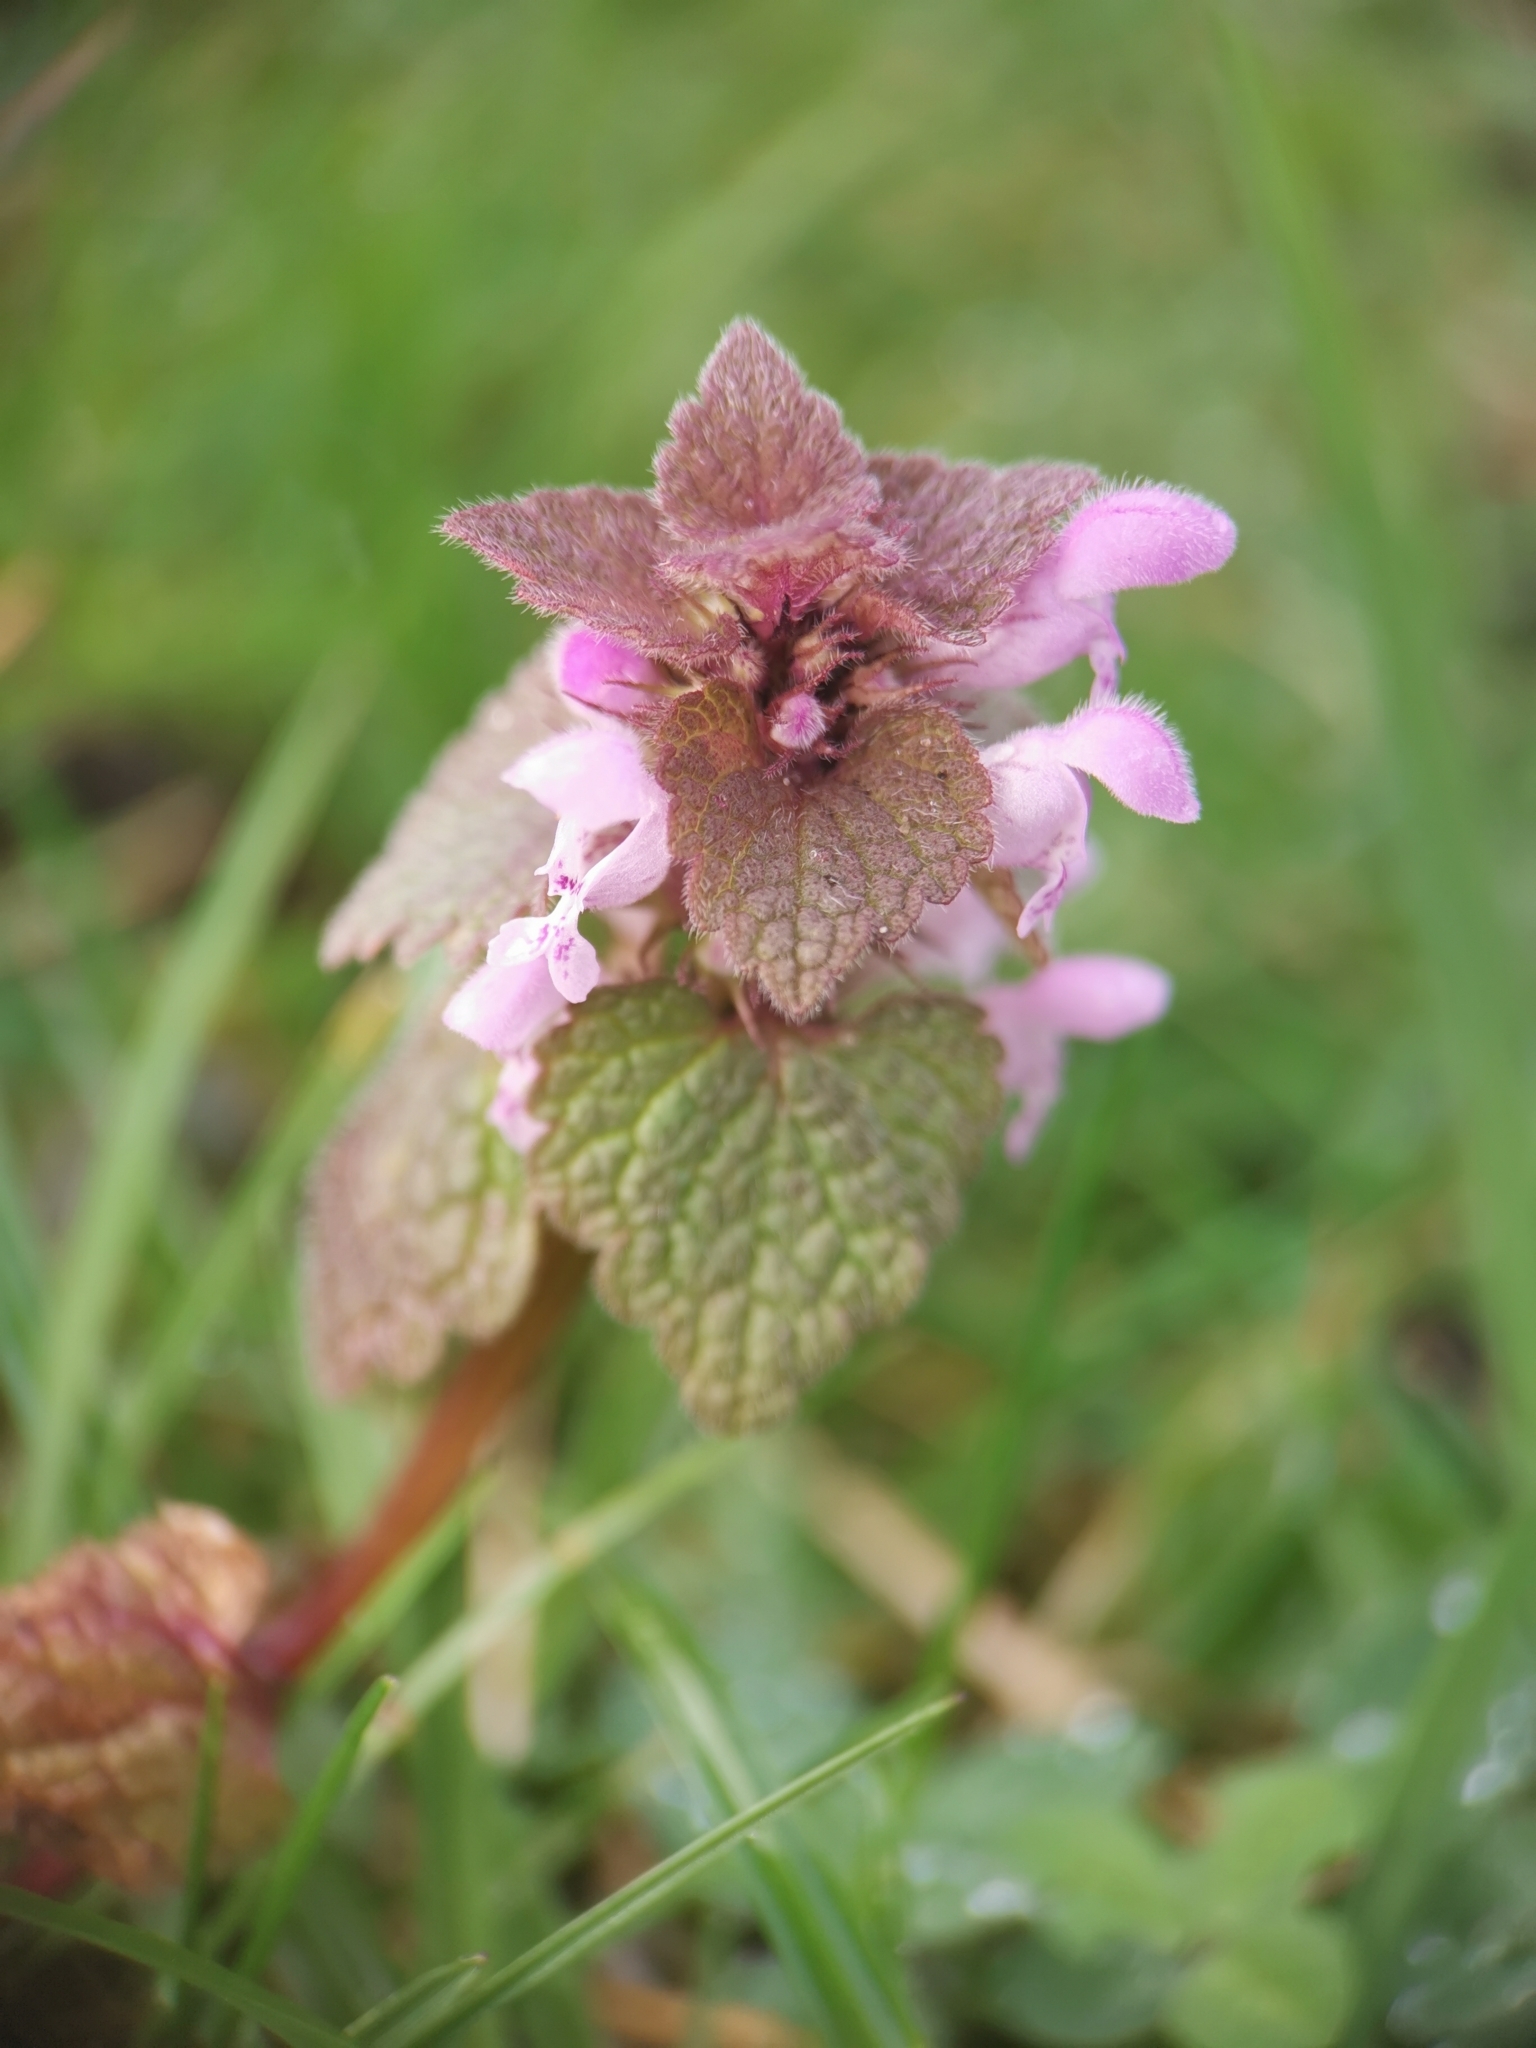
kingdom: Plantae
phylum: Tracheophyta
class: Magnoliopsida
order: Lamiales
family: Lamiaceae
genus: Lamium
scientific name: Lamium purpureum
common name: Red dead-nettle
